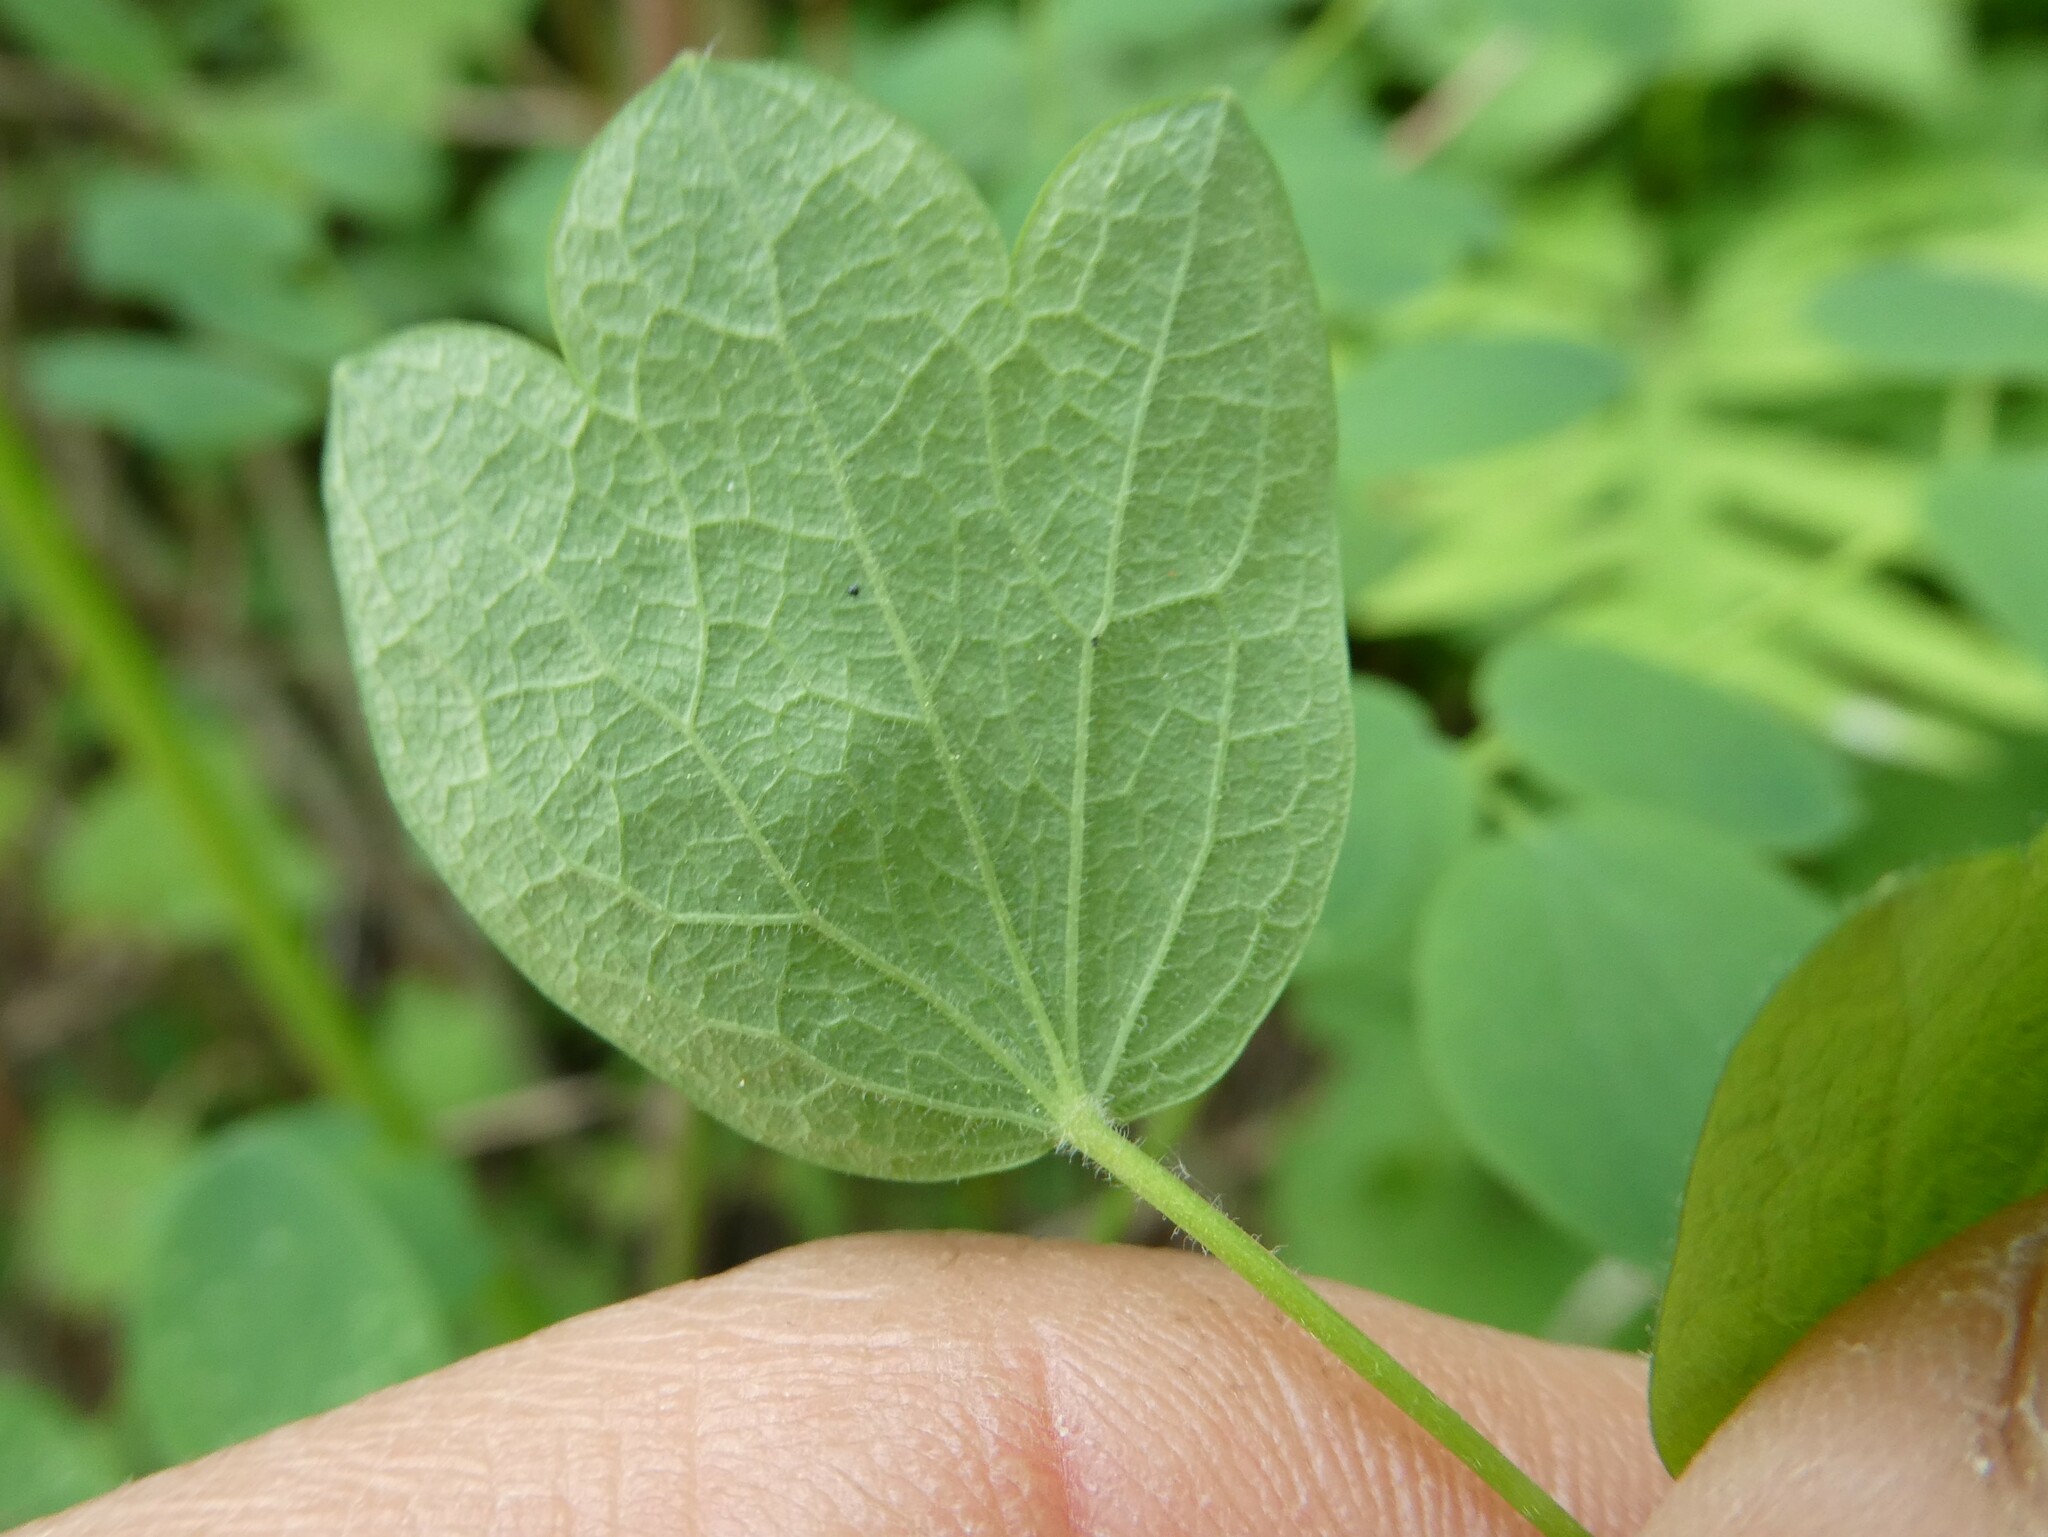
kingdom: Plantae
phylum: Tracheophyta
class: Magnoliopsida
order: Ranunculales
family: Ranunculaceae
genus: Thalictrum
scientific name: Thalictrum pubescens
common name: King-of-the-meadow
